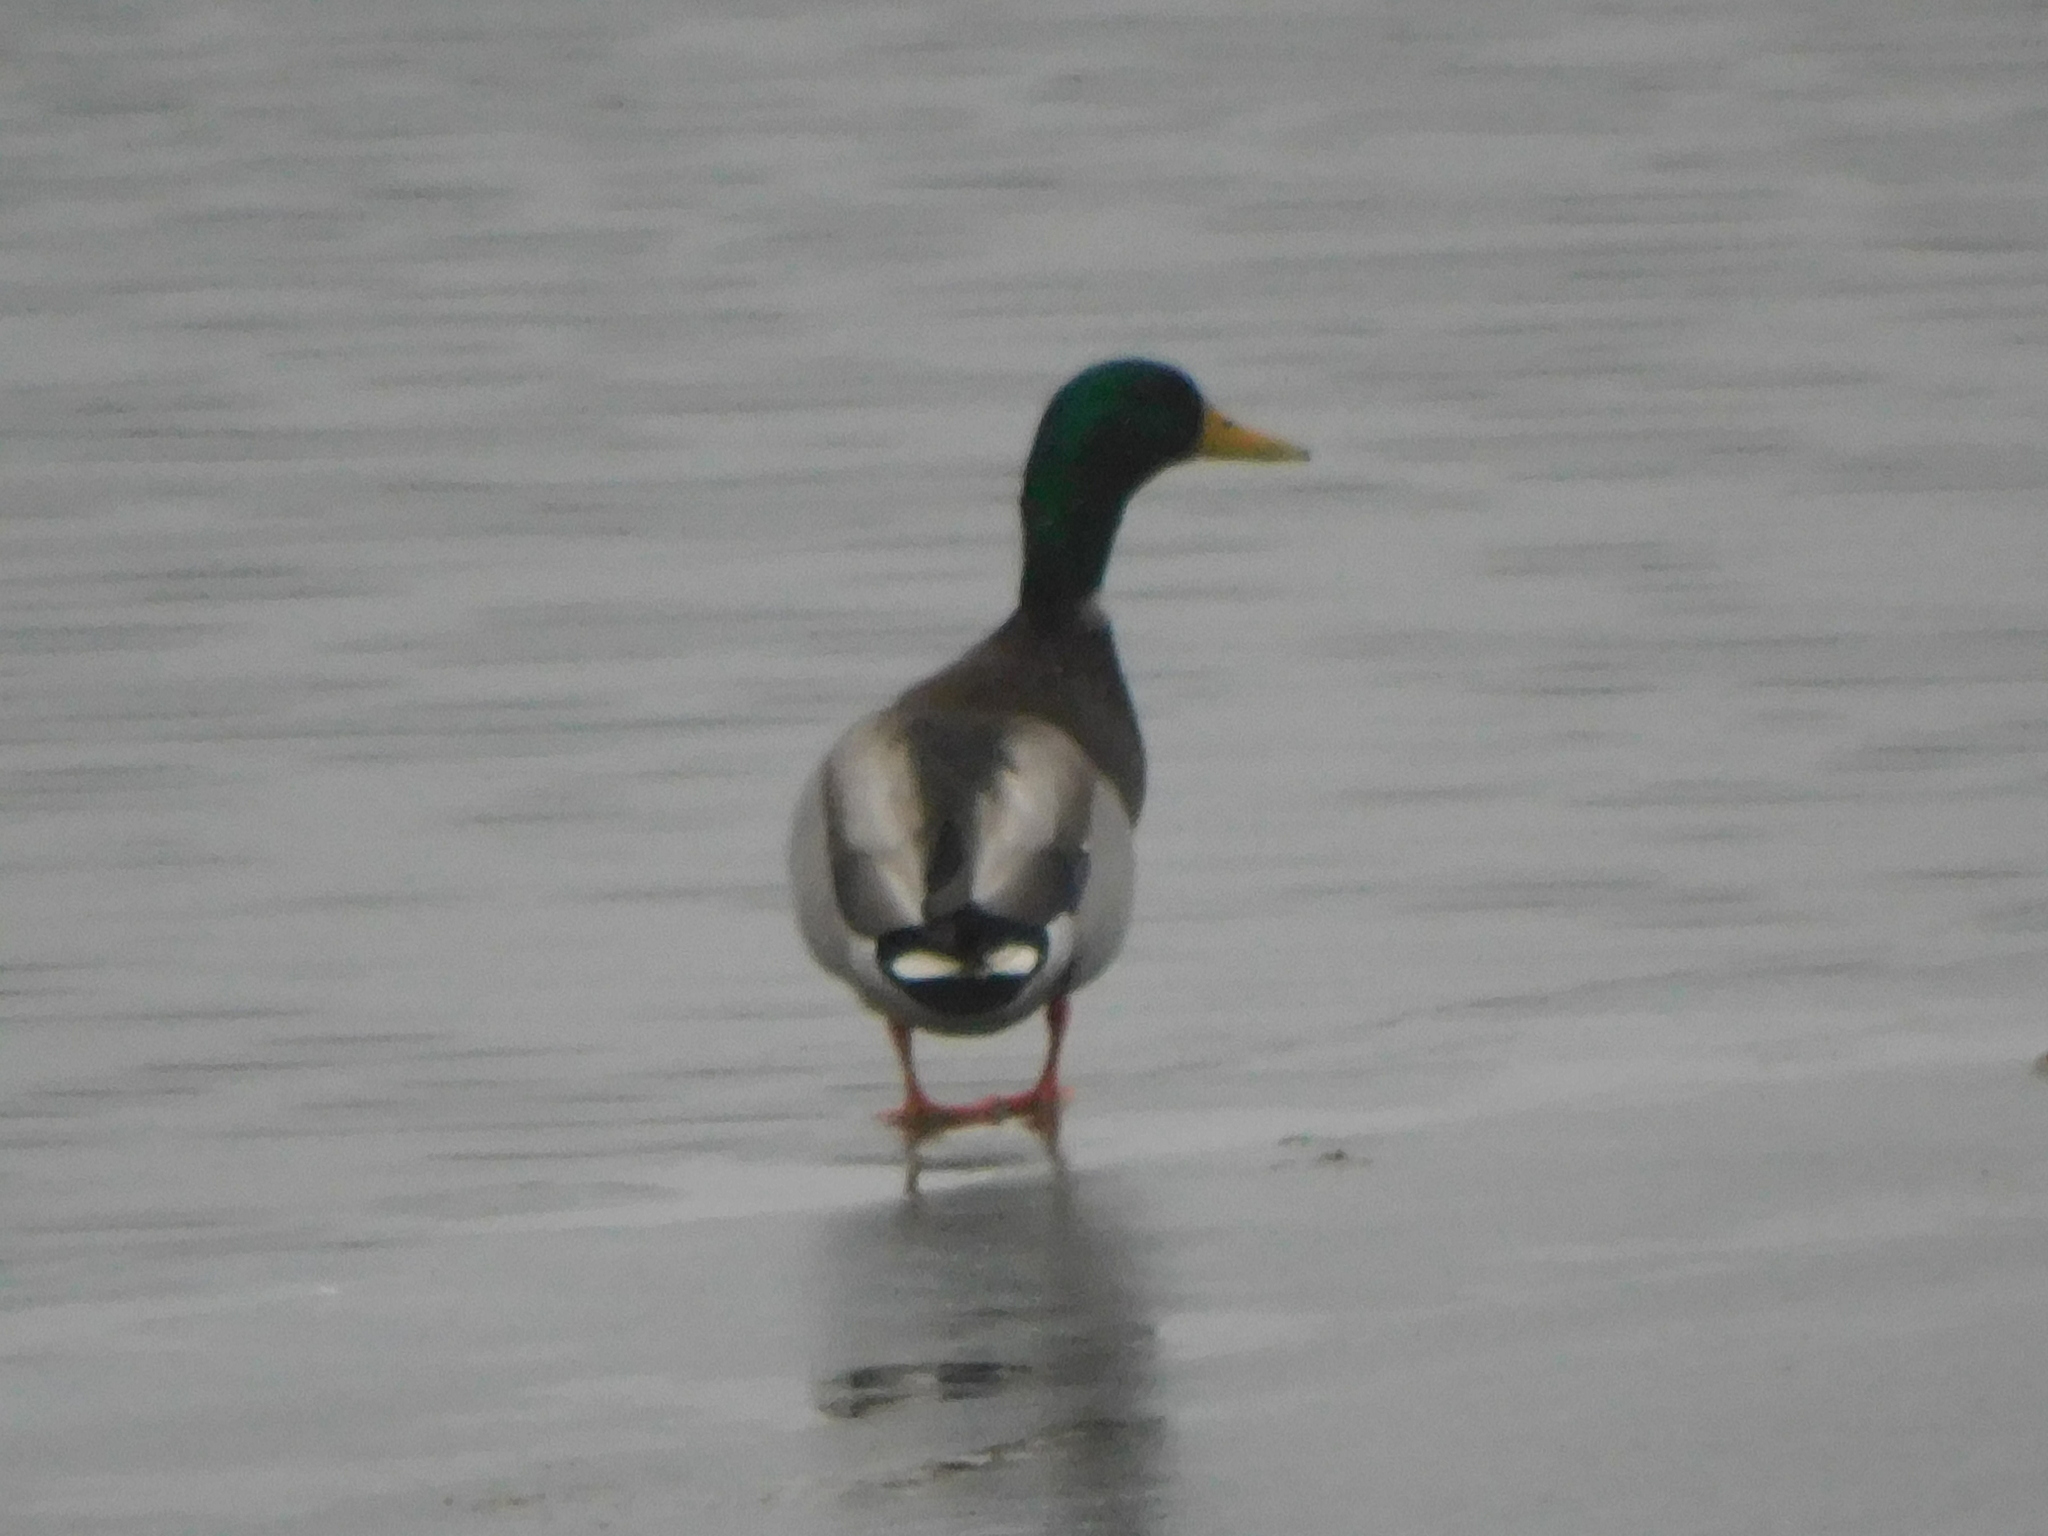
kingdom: Animalia
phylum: Chordata
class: Aves
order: Anseriformes
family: Anatidae
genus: Anas
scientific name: Anas platyrhynchos
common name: Mallard
